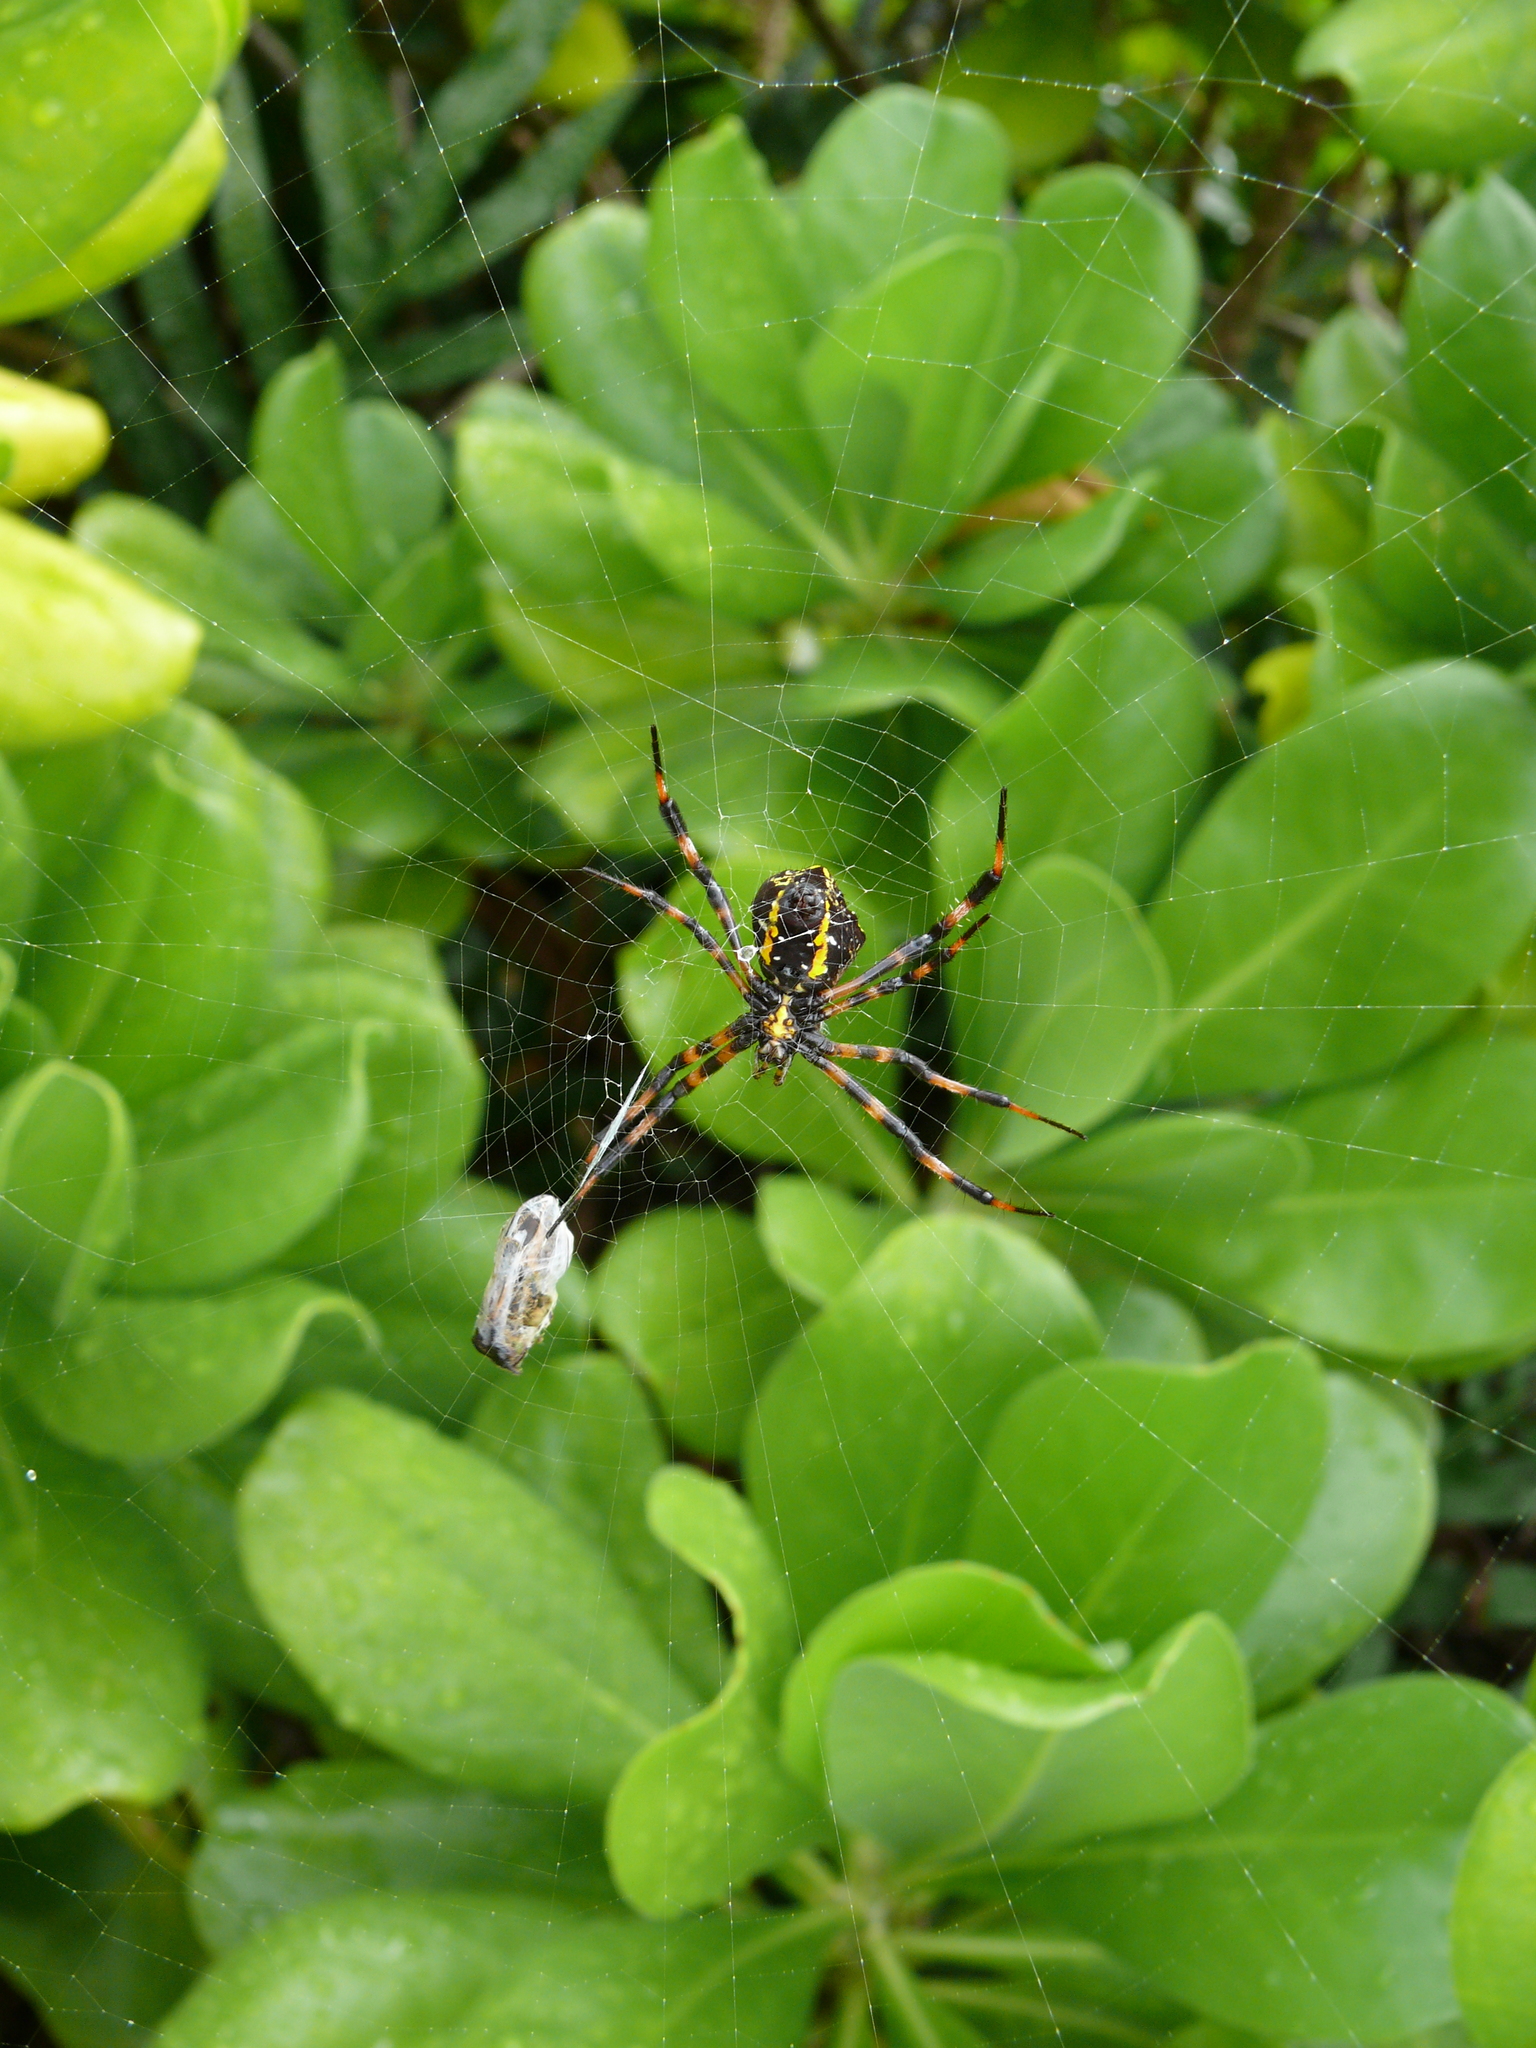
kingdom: Animalia
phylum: Arthropoda
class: Arachnida
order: Araneae
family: Araneidae
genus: Argiope
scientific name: Argiope appensa
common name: Garden spider
